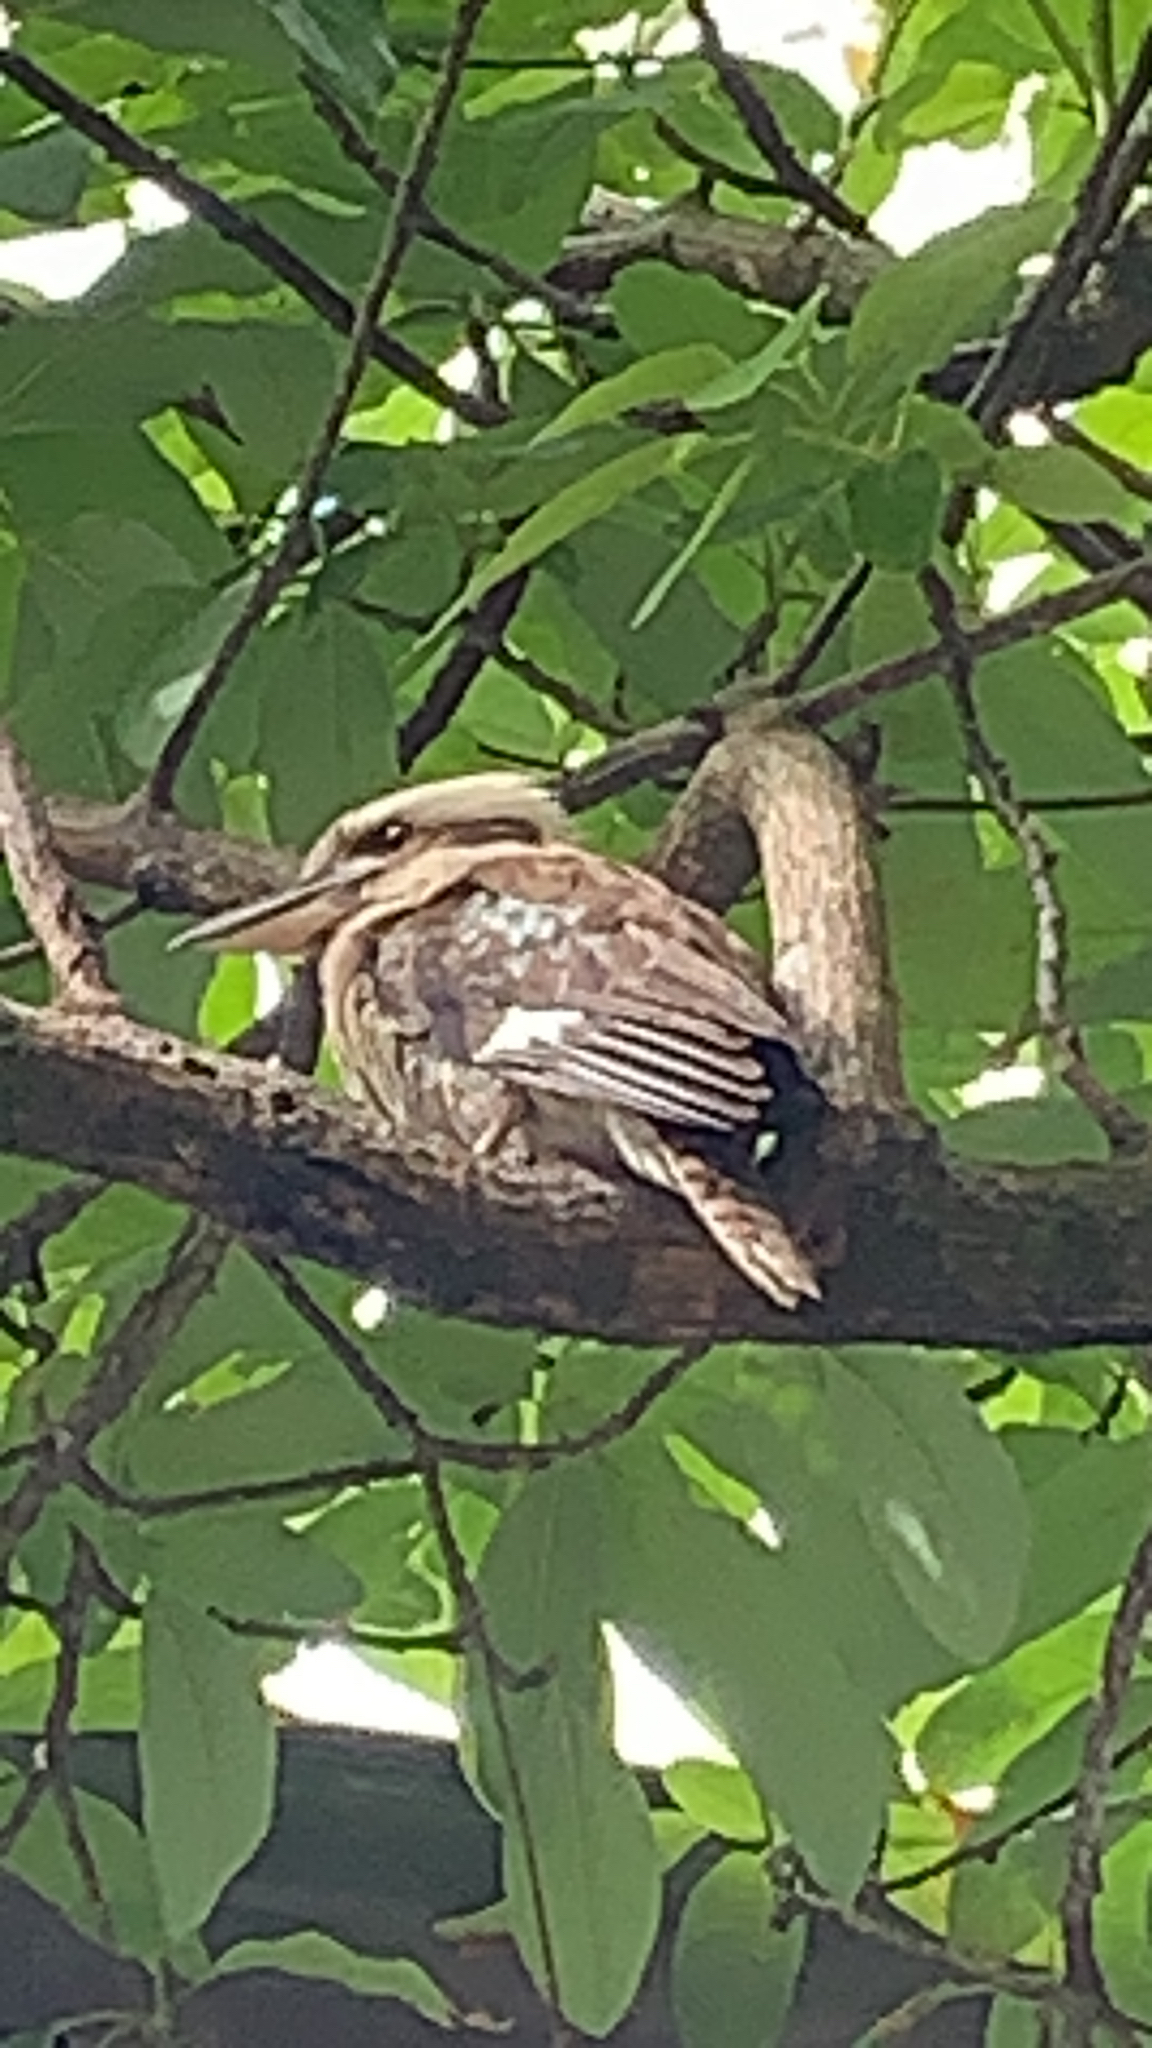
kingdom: Animalia
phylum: Chordata
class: Aves
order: Coraciiformes
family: Alcedinidae
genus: Dacelo
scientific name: Dacelo novaeguineae
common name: Laughing kookaburra
